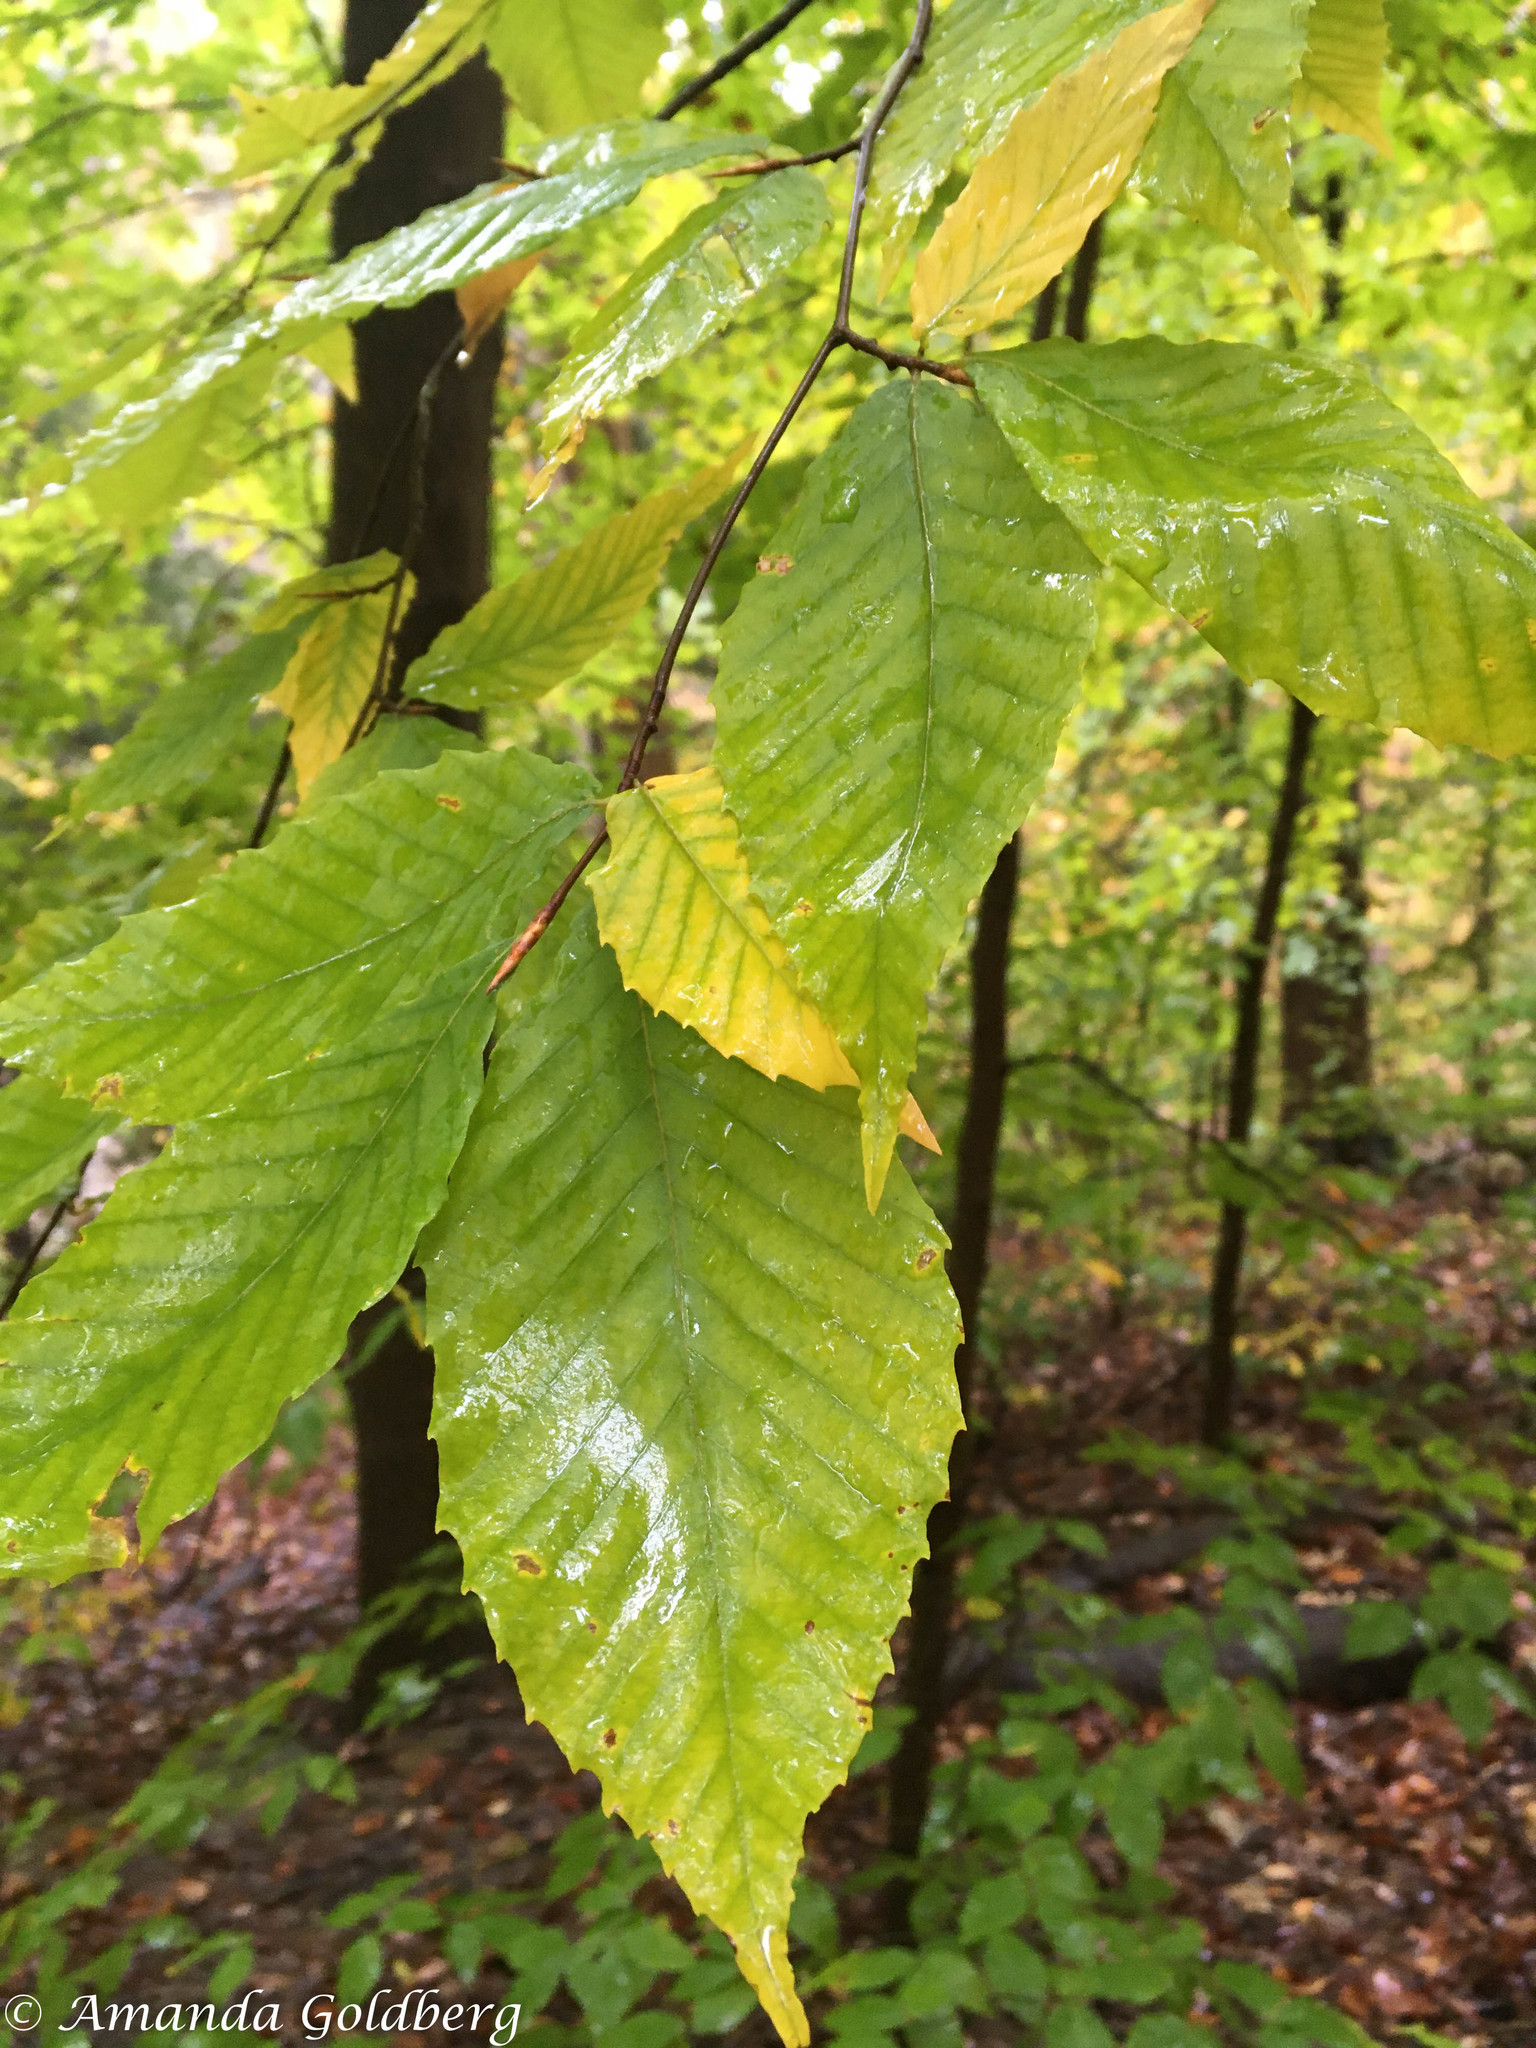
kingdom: Plantae
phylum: Tracheophyta
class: Magnoliopsida
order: Fagales
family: Fagaceae
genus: Fagus
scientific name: Fagus grandifolia
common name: American beech
